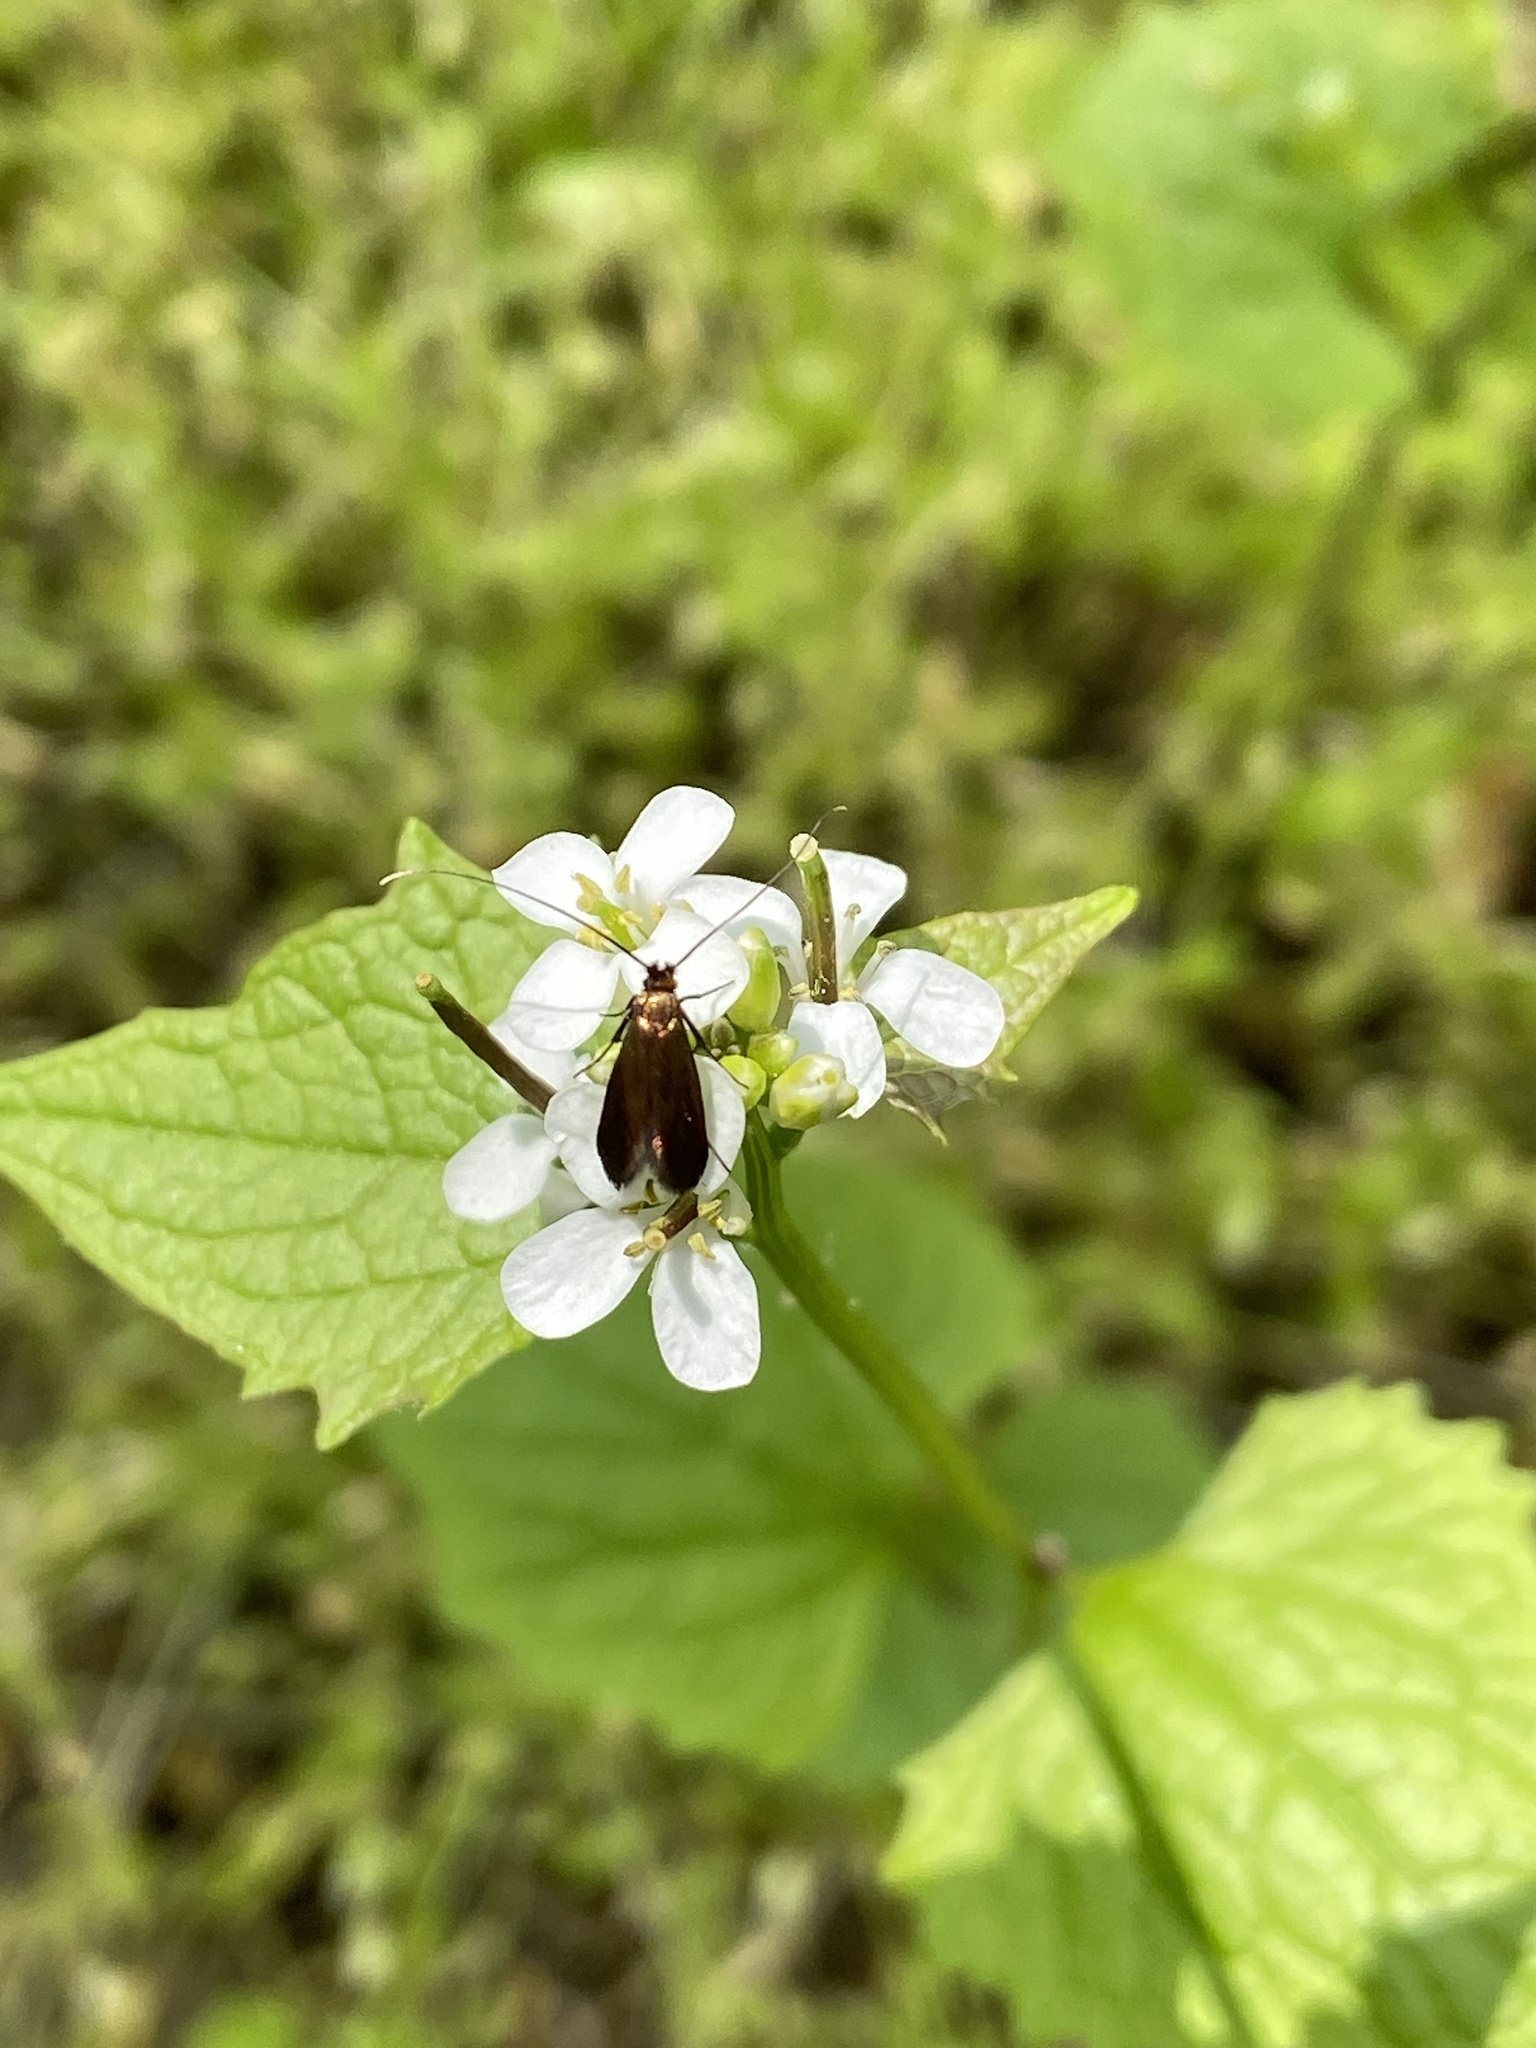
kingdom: Animalia
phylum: Arthropoda
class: Insecta
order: Lepidoptera
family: Adelidae
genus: Cauchas
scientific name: Cauchas rufimitrella
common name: Meadow long-horn
